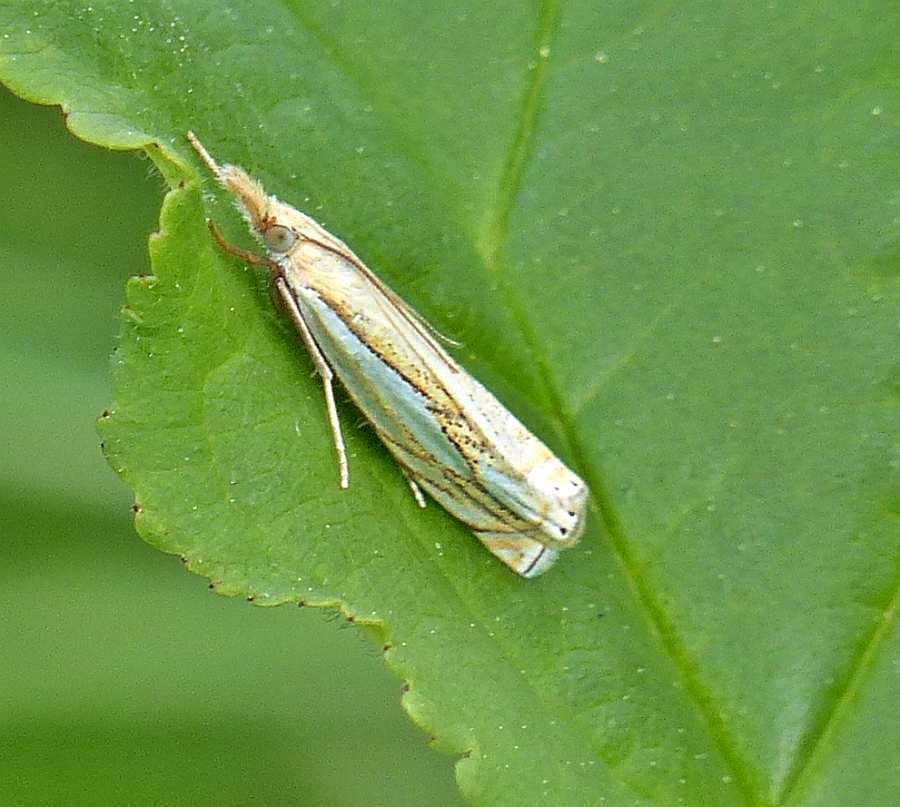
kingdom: Animalia
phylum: Arthropoda
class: Insecta
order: Lepidoptera
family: Crambidae
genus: Crambus
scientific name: Crambus saltuellus
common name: Pasture grass-veneer
